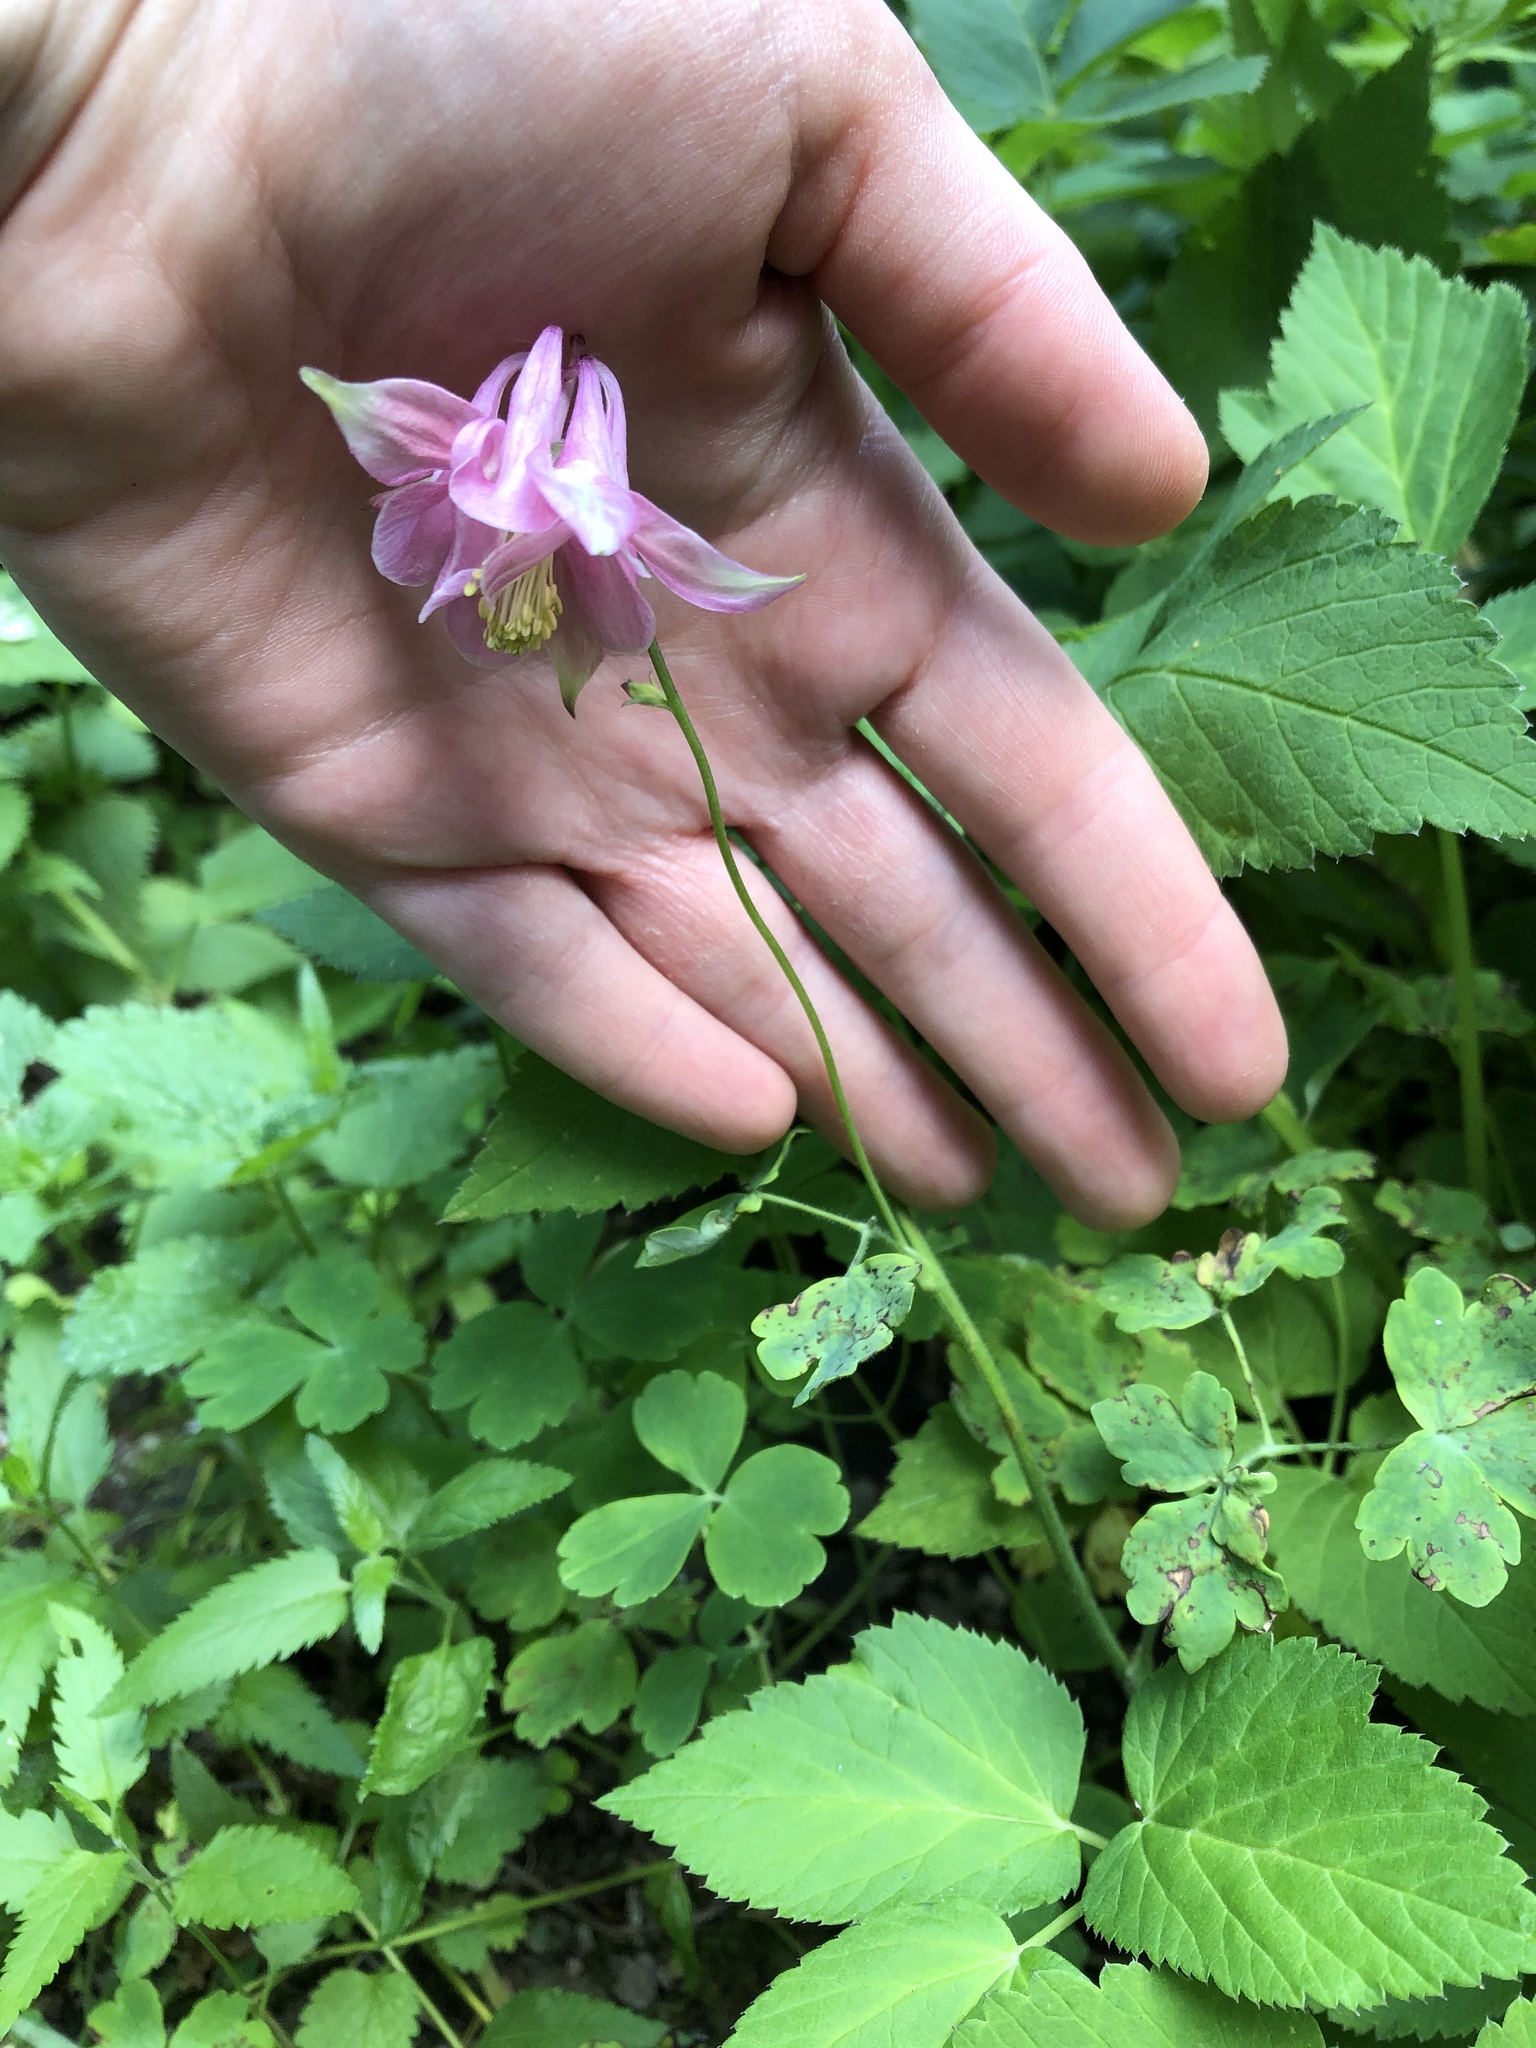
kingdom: Plantae
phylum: Tracheophyta
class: Magnoliopsida
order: Ranunculales
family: Ranunculaceae
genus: Aquilegia
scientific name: Aquilegia vulgaris
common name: Columbine
